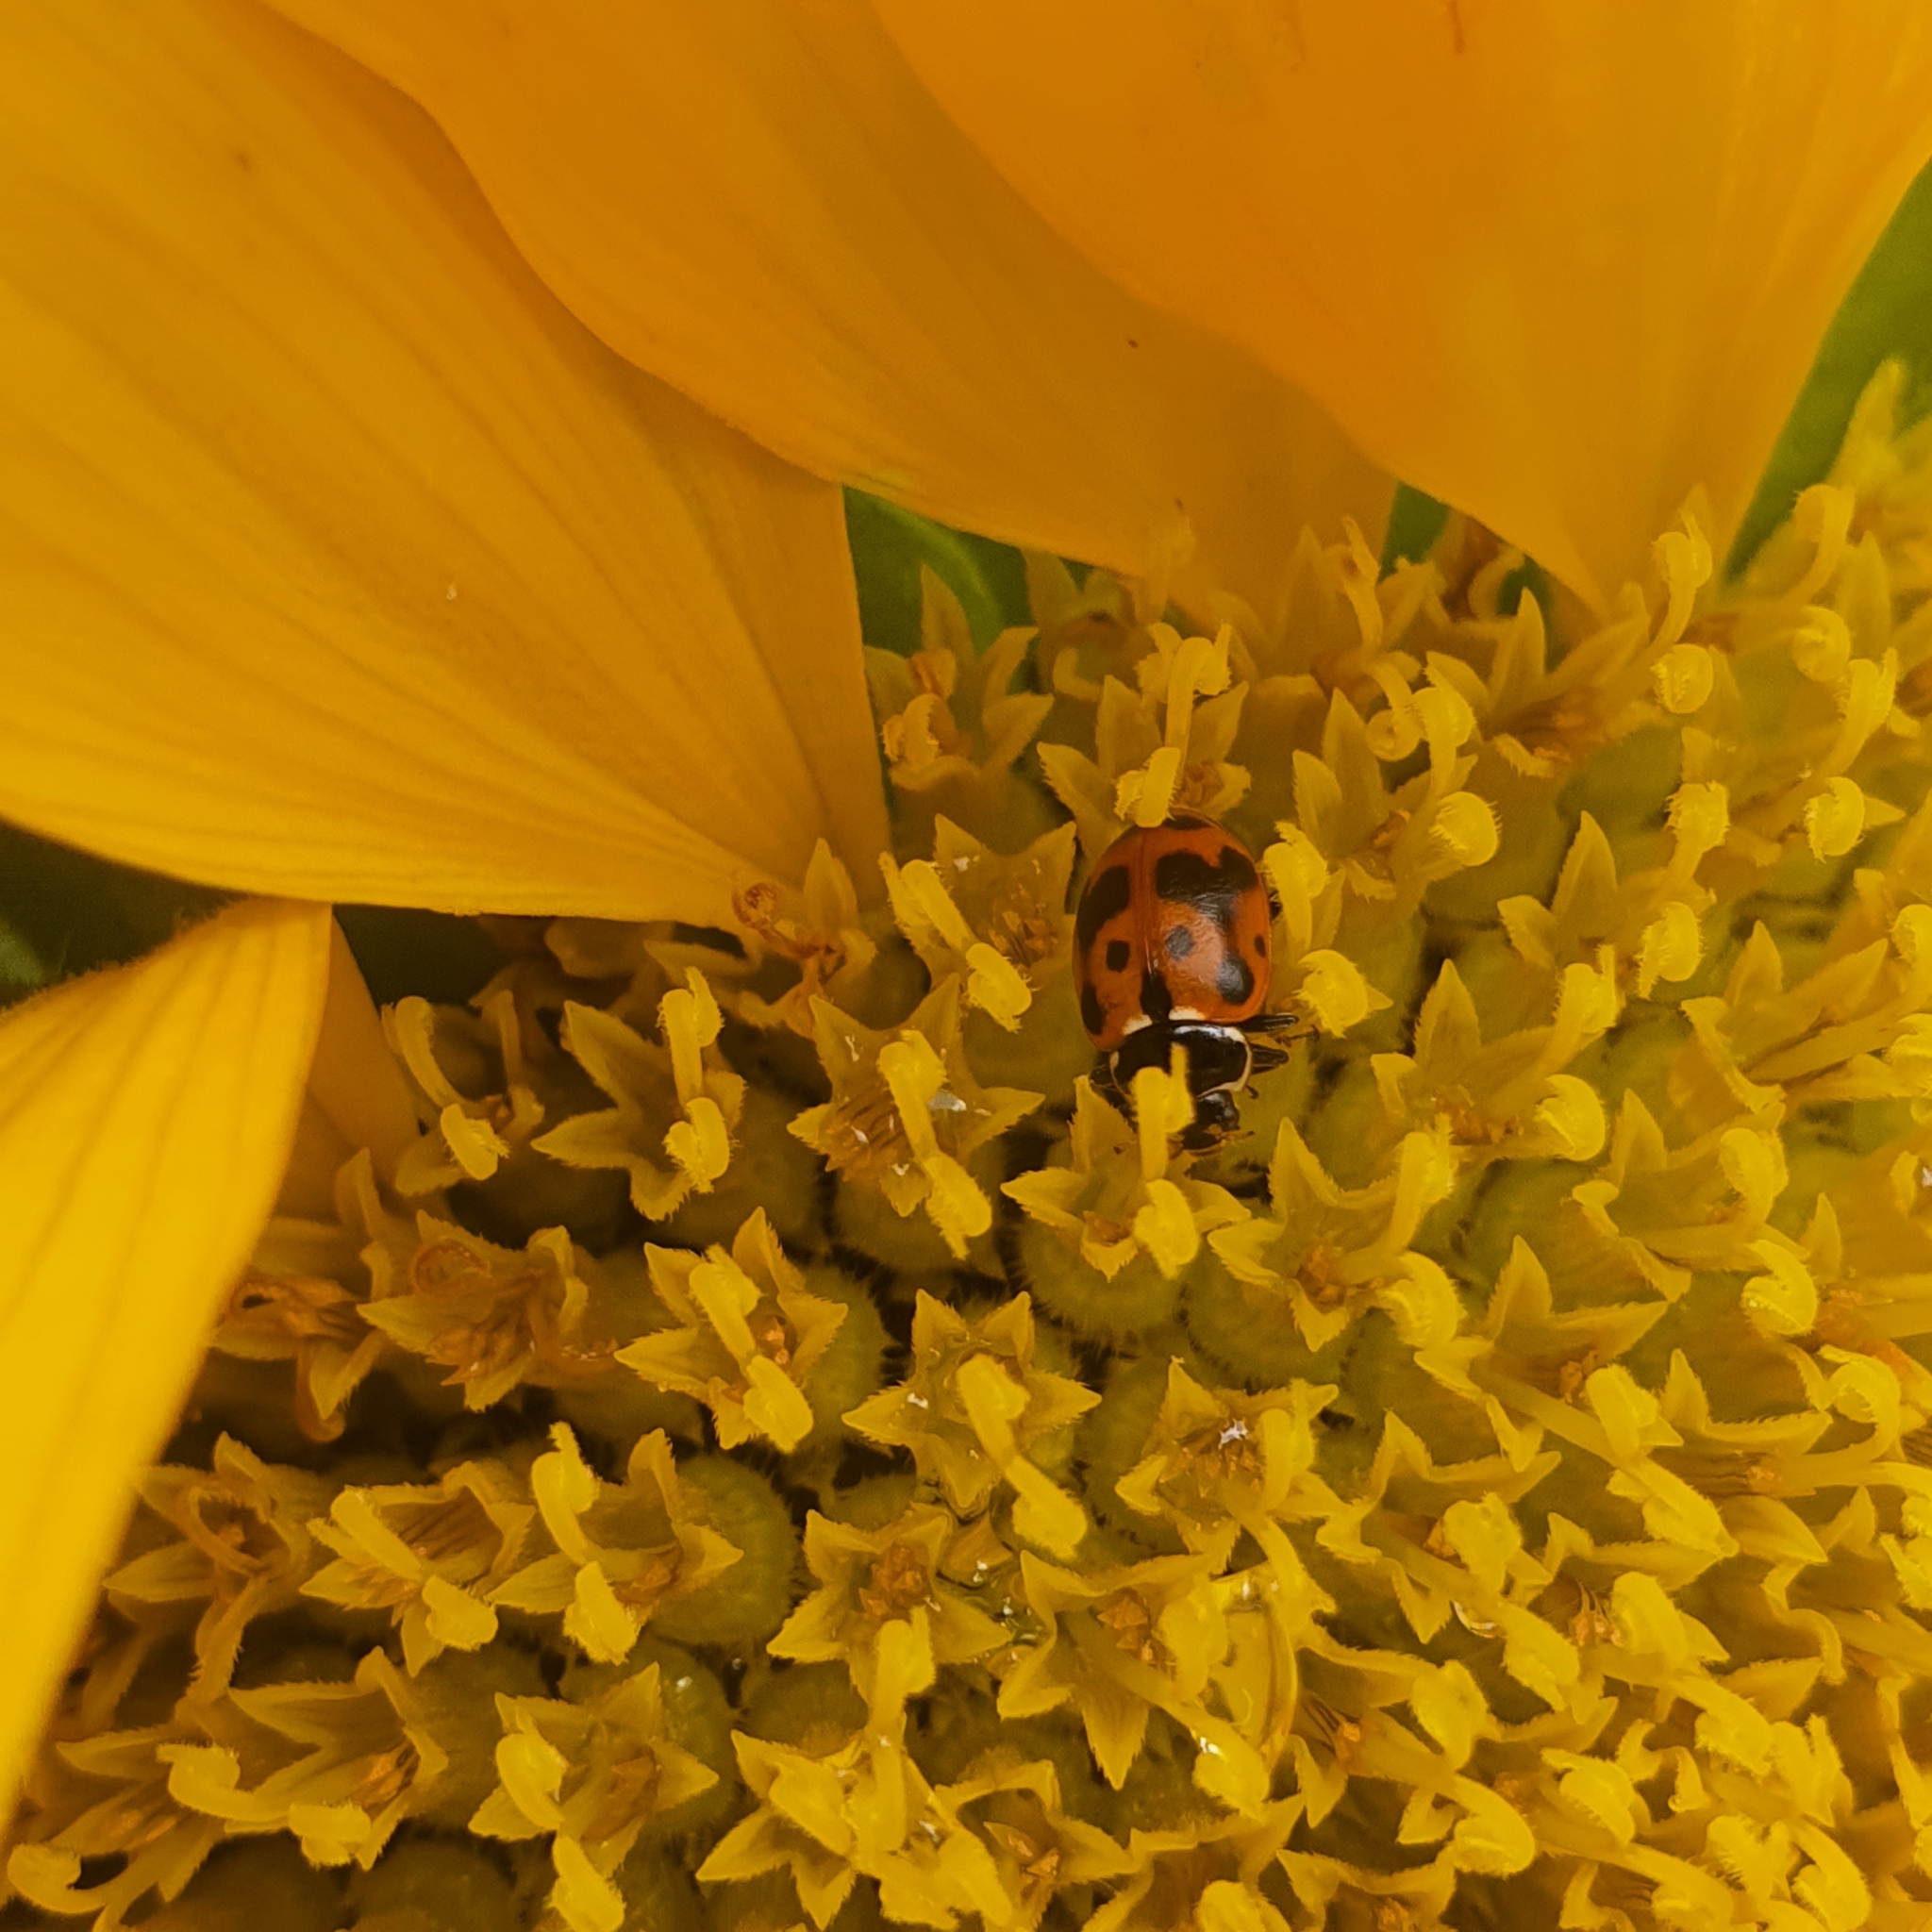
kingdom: Animalia
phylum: Arthropoda
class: Insecta
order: Coleoptera
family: Coccinellidae
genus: Hippodamia
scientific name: Hippodamia variegata
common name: Ladybird beetle
